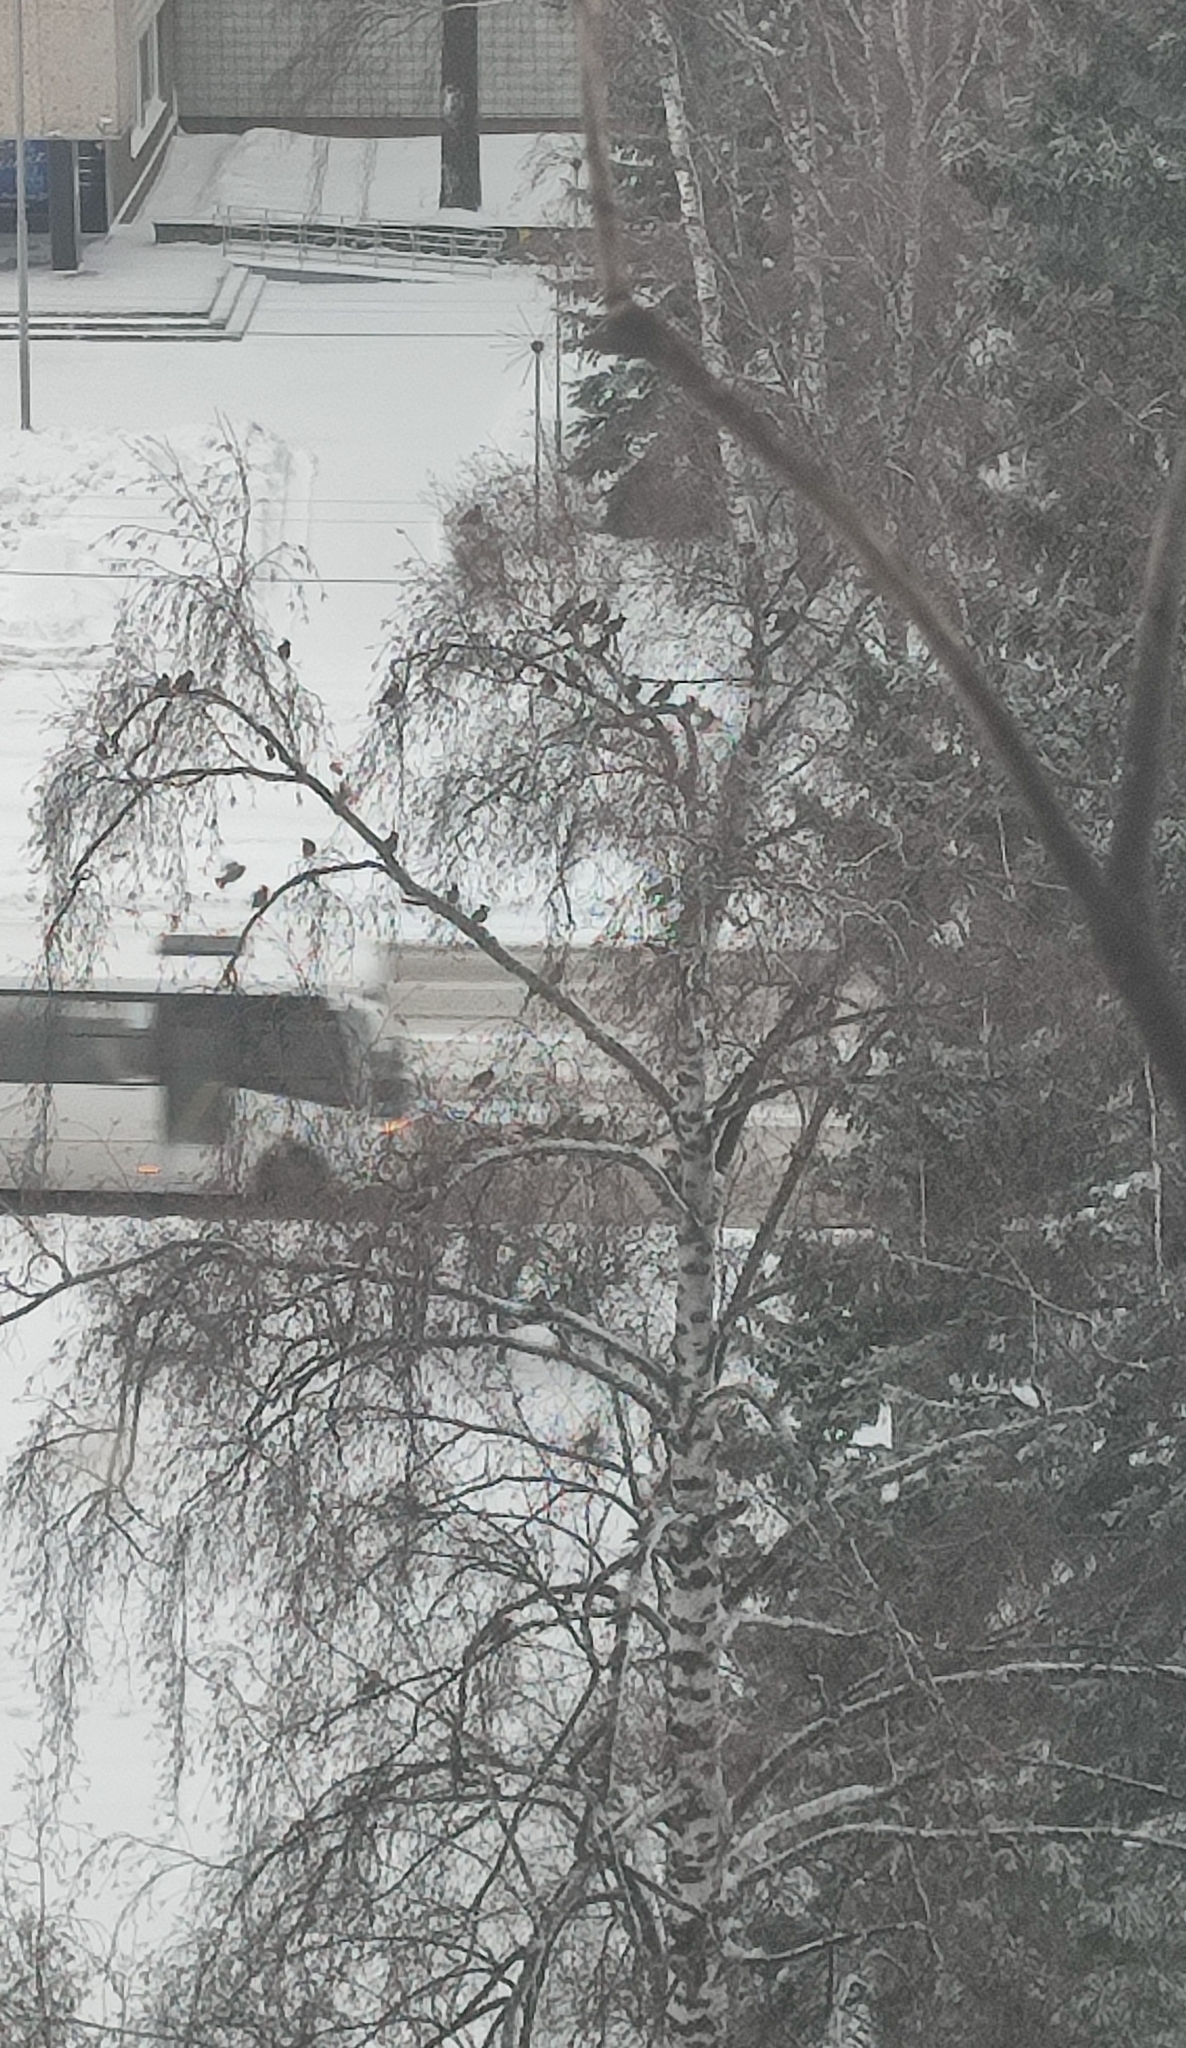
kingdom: Animalia
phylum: Chordata
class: Aves
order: Passeriformes
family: Bombycillidae
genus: Bombycilla
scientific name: Bombycilla garrulus
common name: Bohemian waxwing
